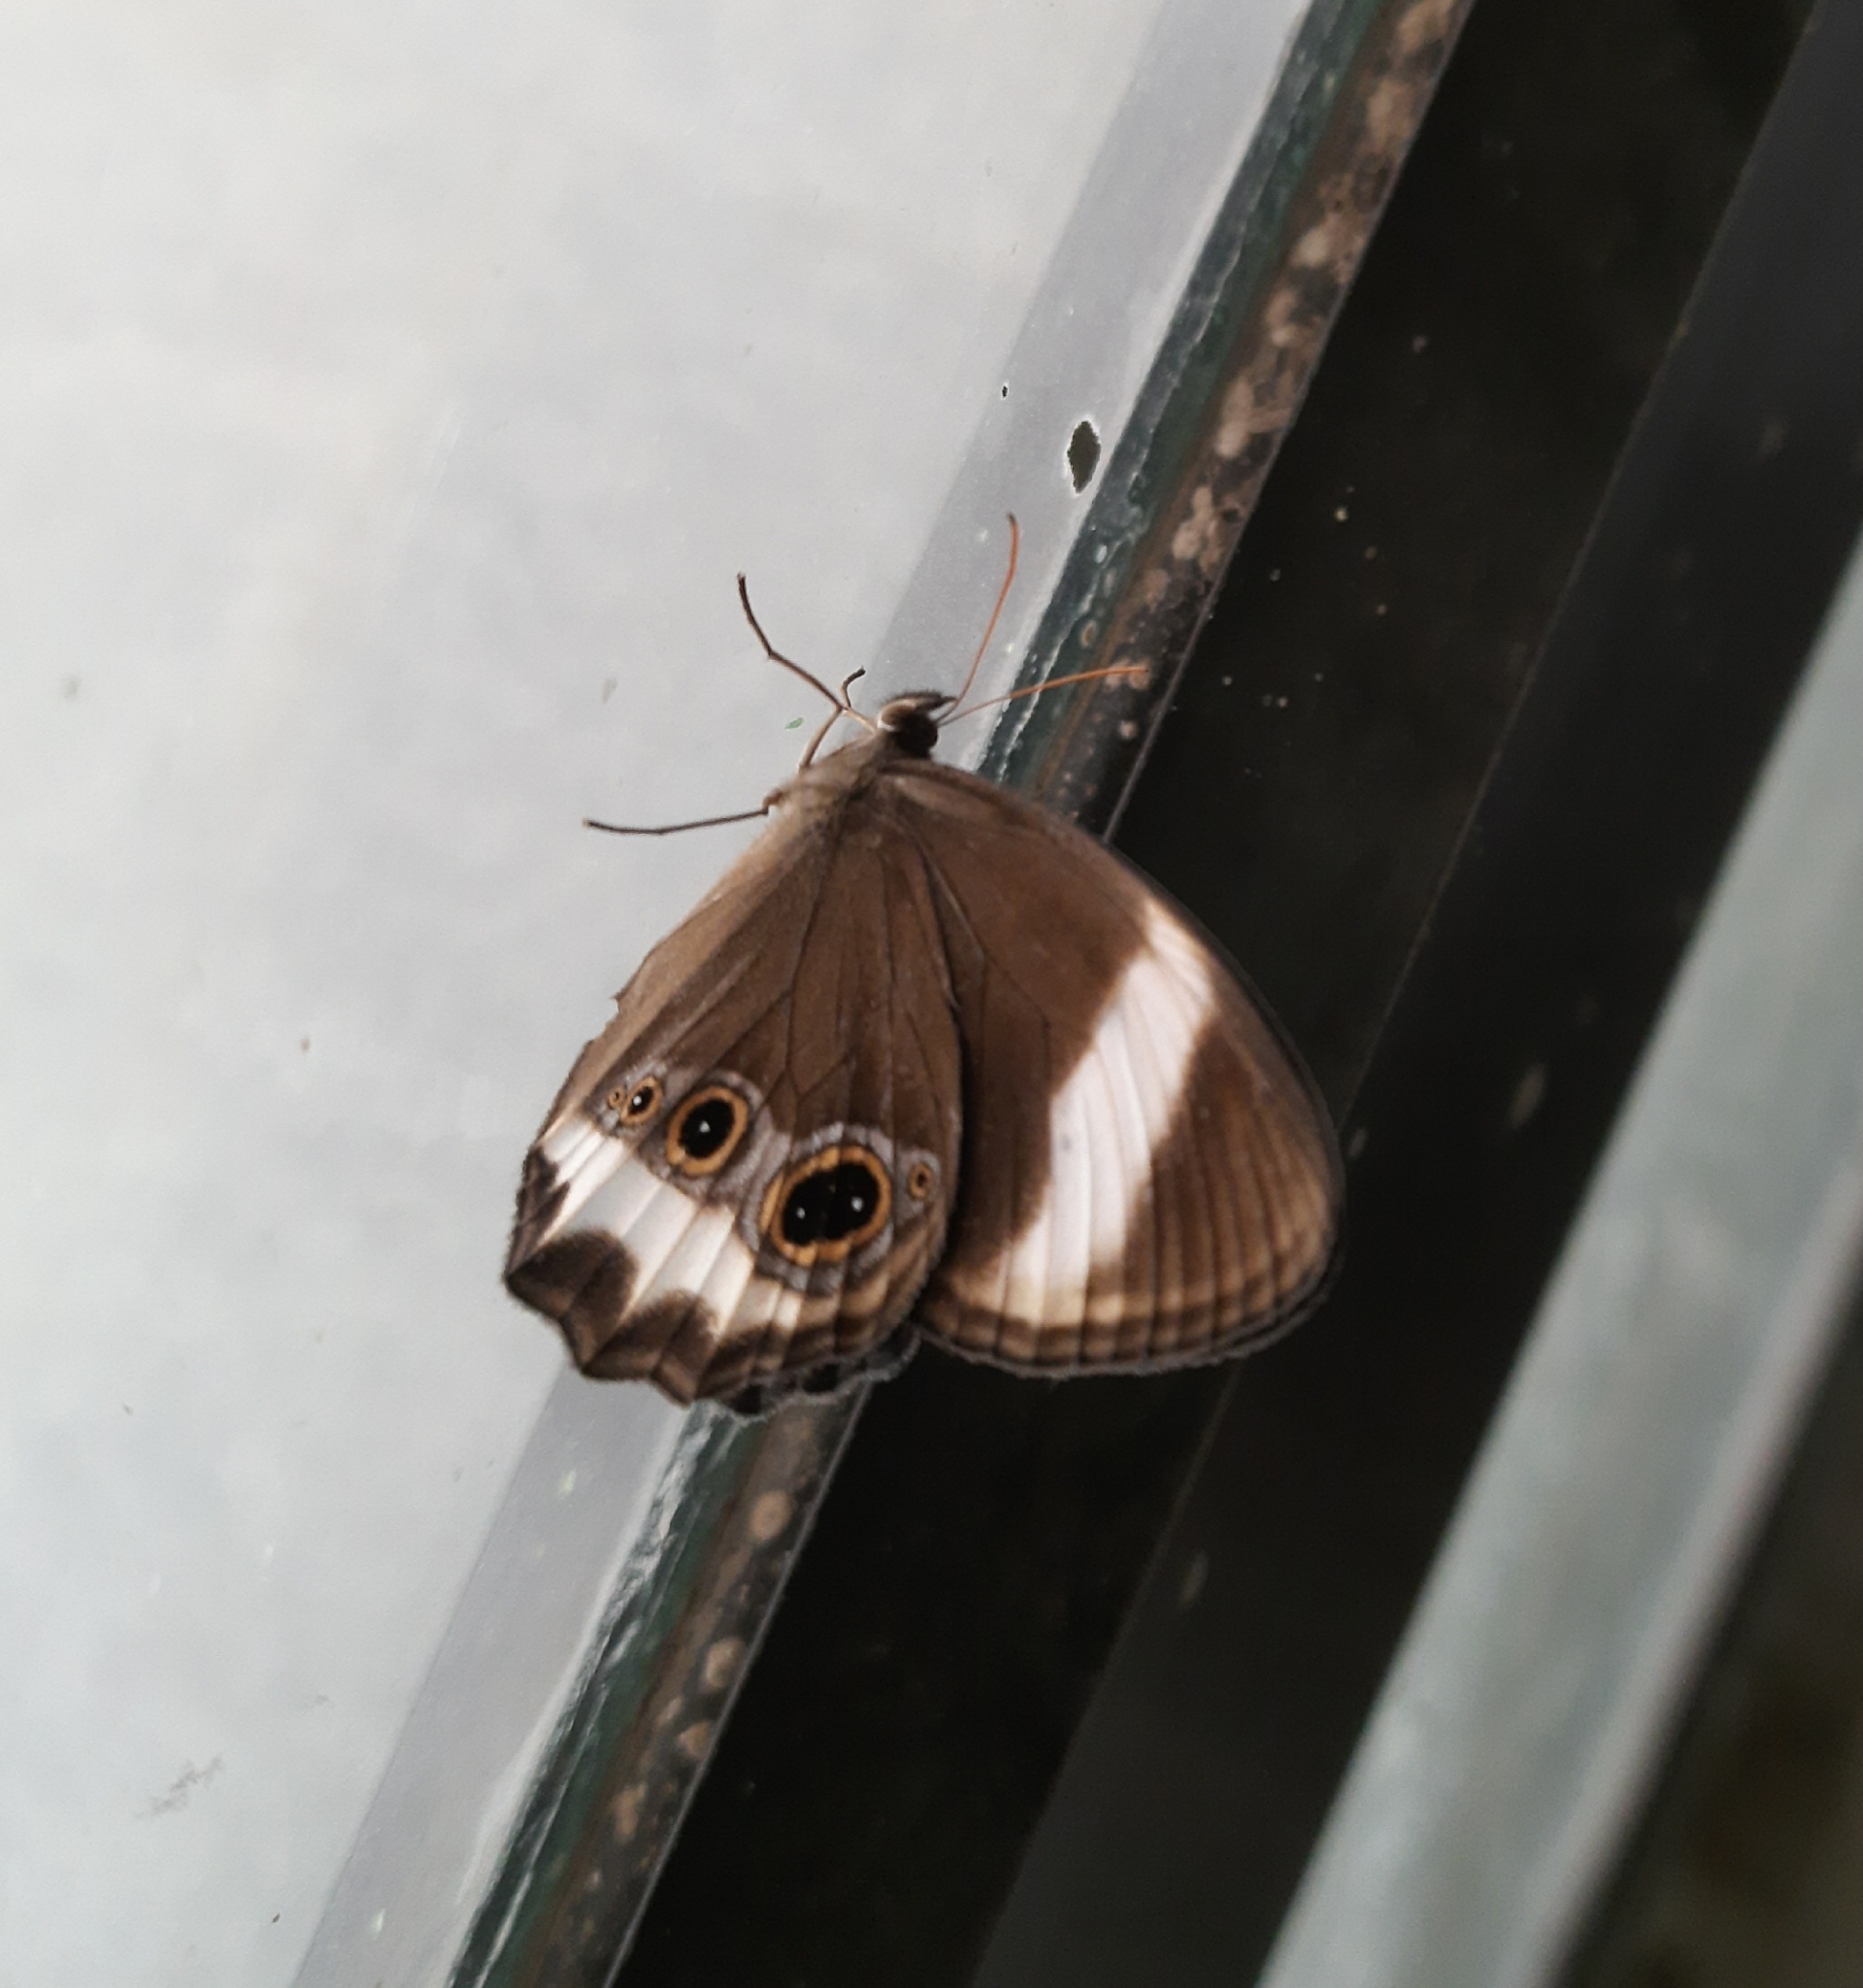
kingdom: Animalia
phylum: Arthropoda
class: Insecta
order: Lepidoptera
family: Nymphalidae
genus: Zipaetis
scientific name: Zipaetis saitis
